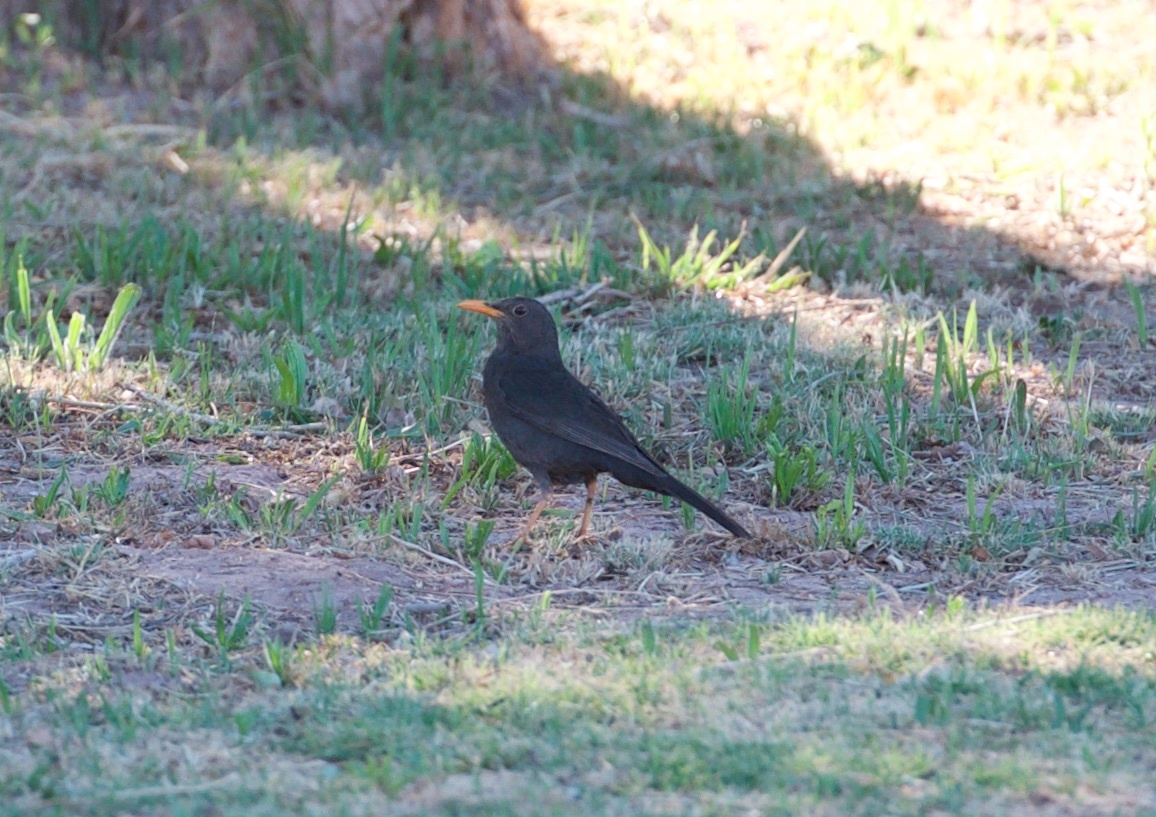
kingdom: Animalia
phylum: Chordata
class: Aves
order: Passeriformes
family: Turdidae
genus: Turdus
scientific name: Turdus chiguanco
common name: Chiguanco thrush
